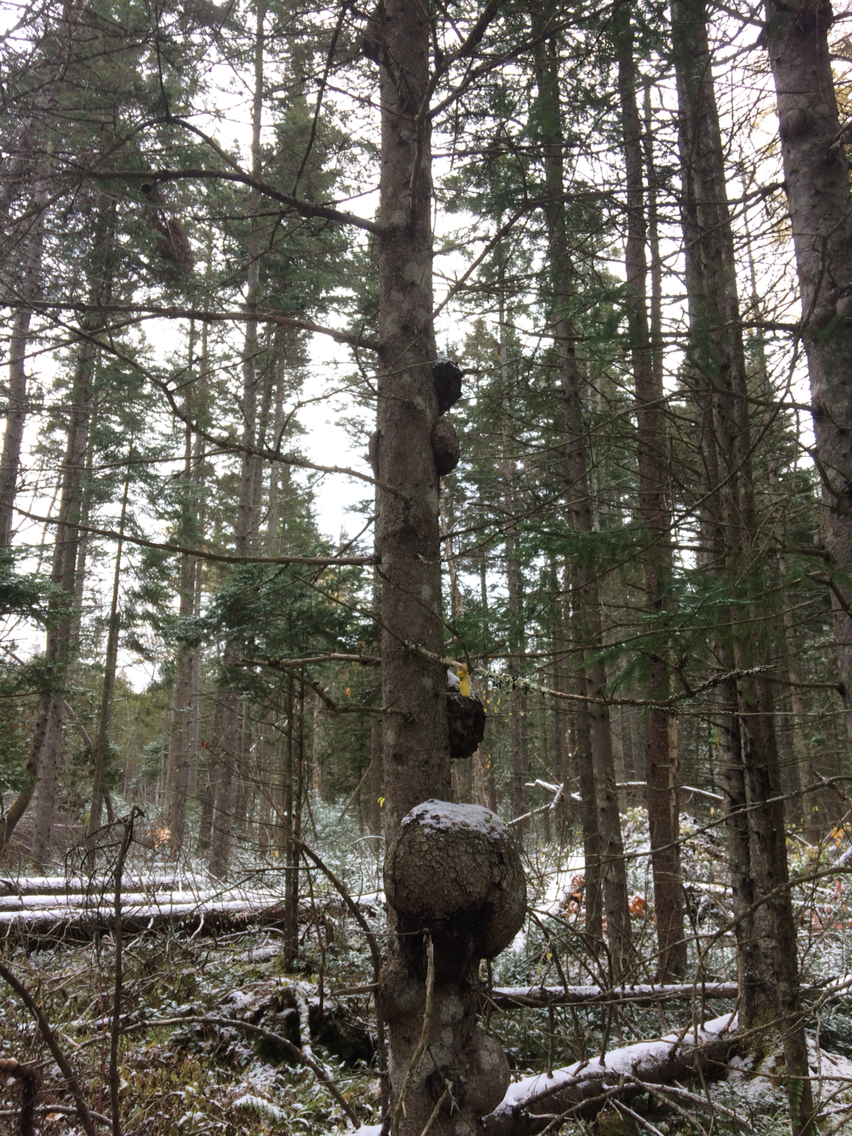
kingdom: Plantae
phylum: Tracheophyta
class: Pinopsida
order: Pinales
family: Pinaceae
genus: Picea
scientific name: Picea glauca
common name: White spruce
